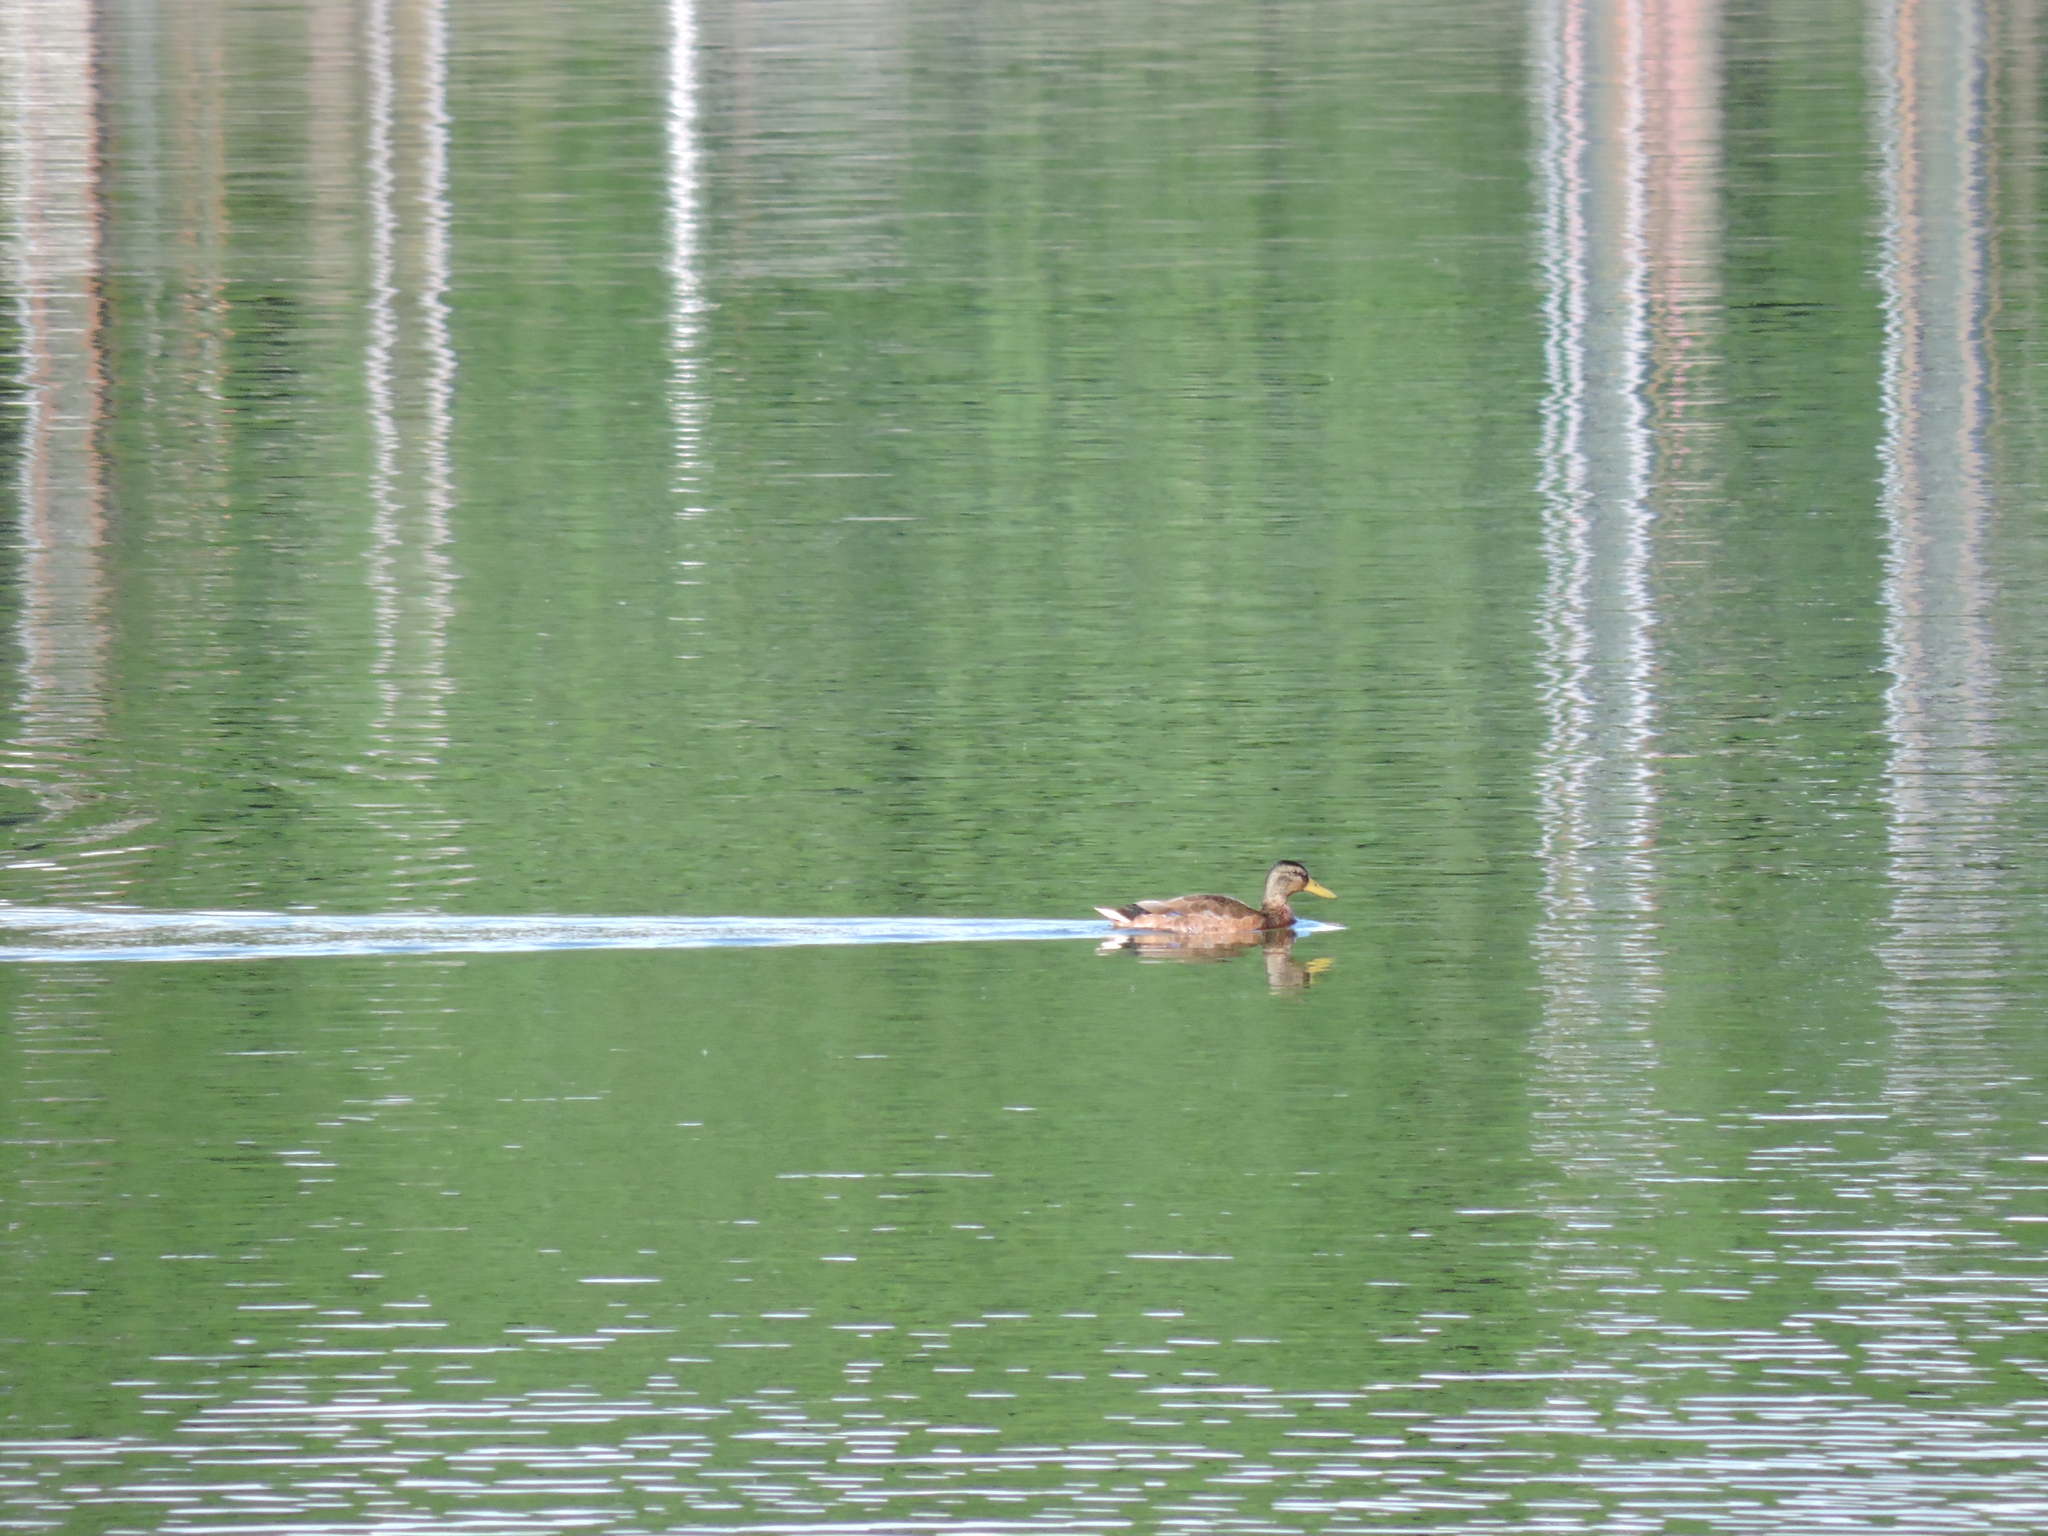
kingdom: Animalia
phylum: Chordata
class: Aves
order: Anseriformes
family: Anatidae
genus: Anas
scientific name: Anas platyrhynchos
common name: Mallard
